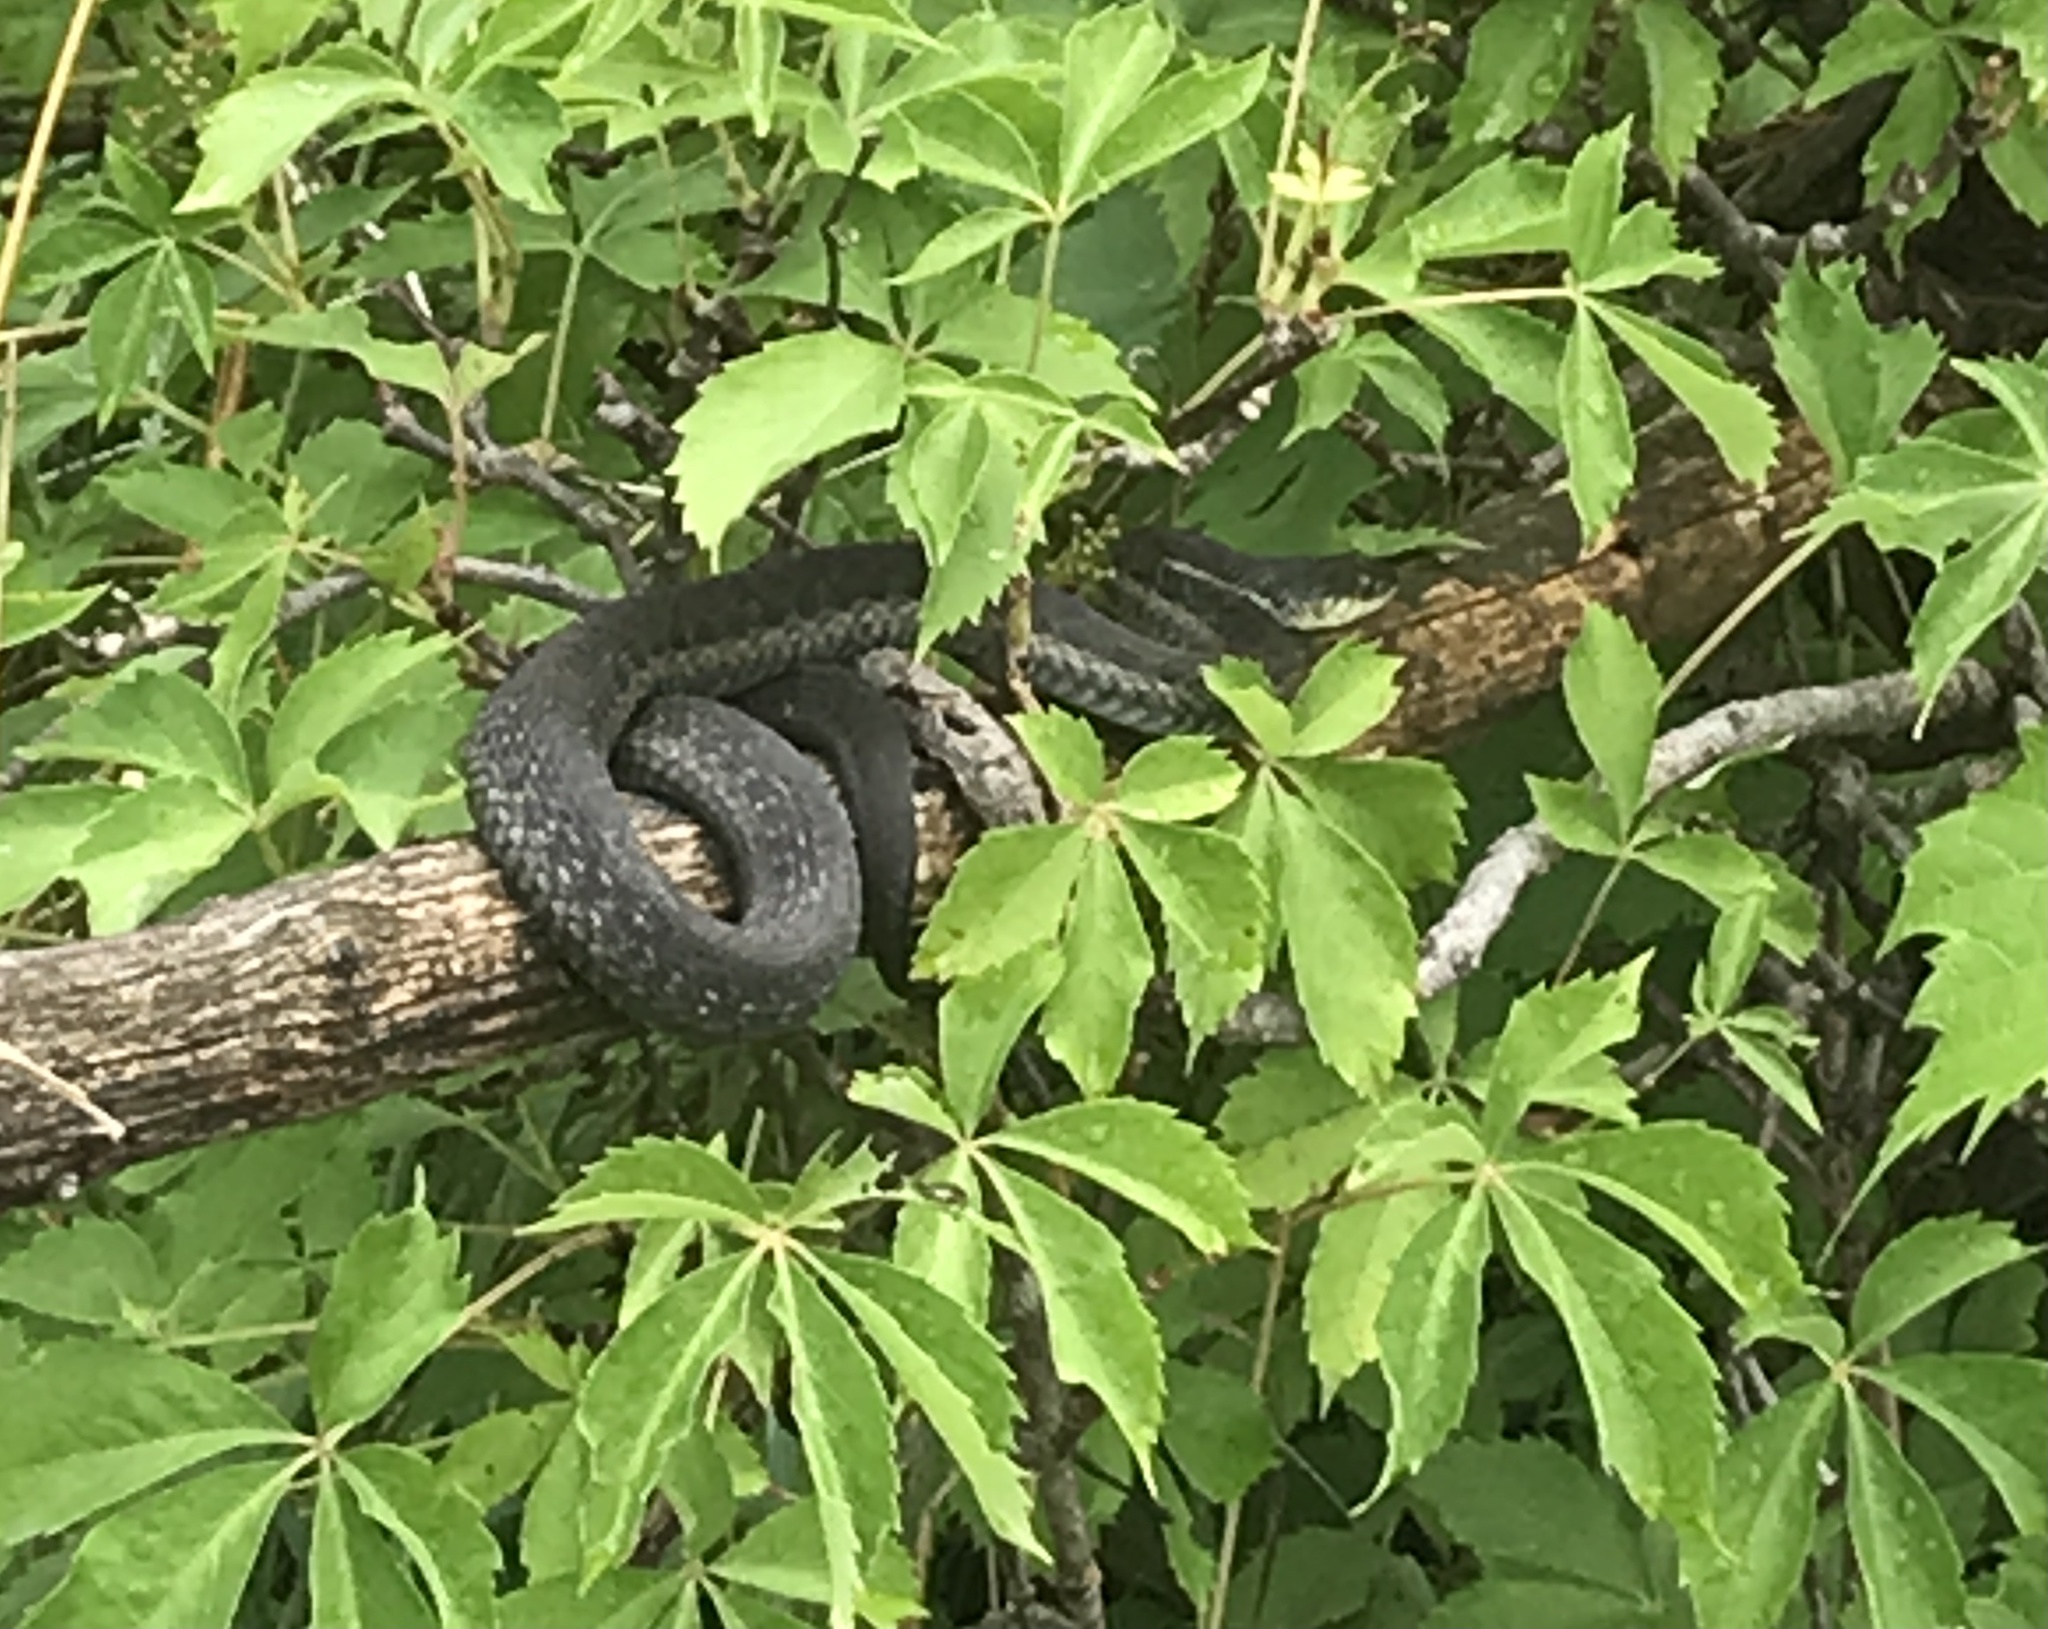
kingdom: Animalia
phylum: Chordata
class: Squamata
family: Colubridae
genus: Thamnophis
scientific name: Thamnophis sirtalis
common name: Common garter snake
